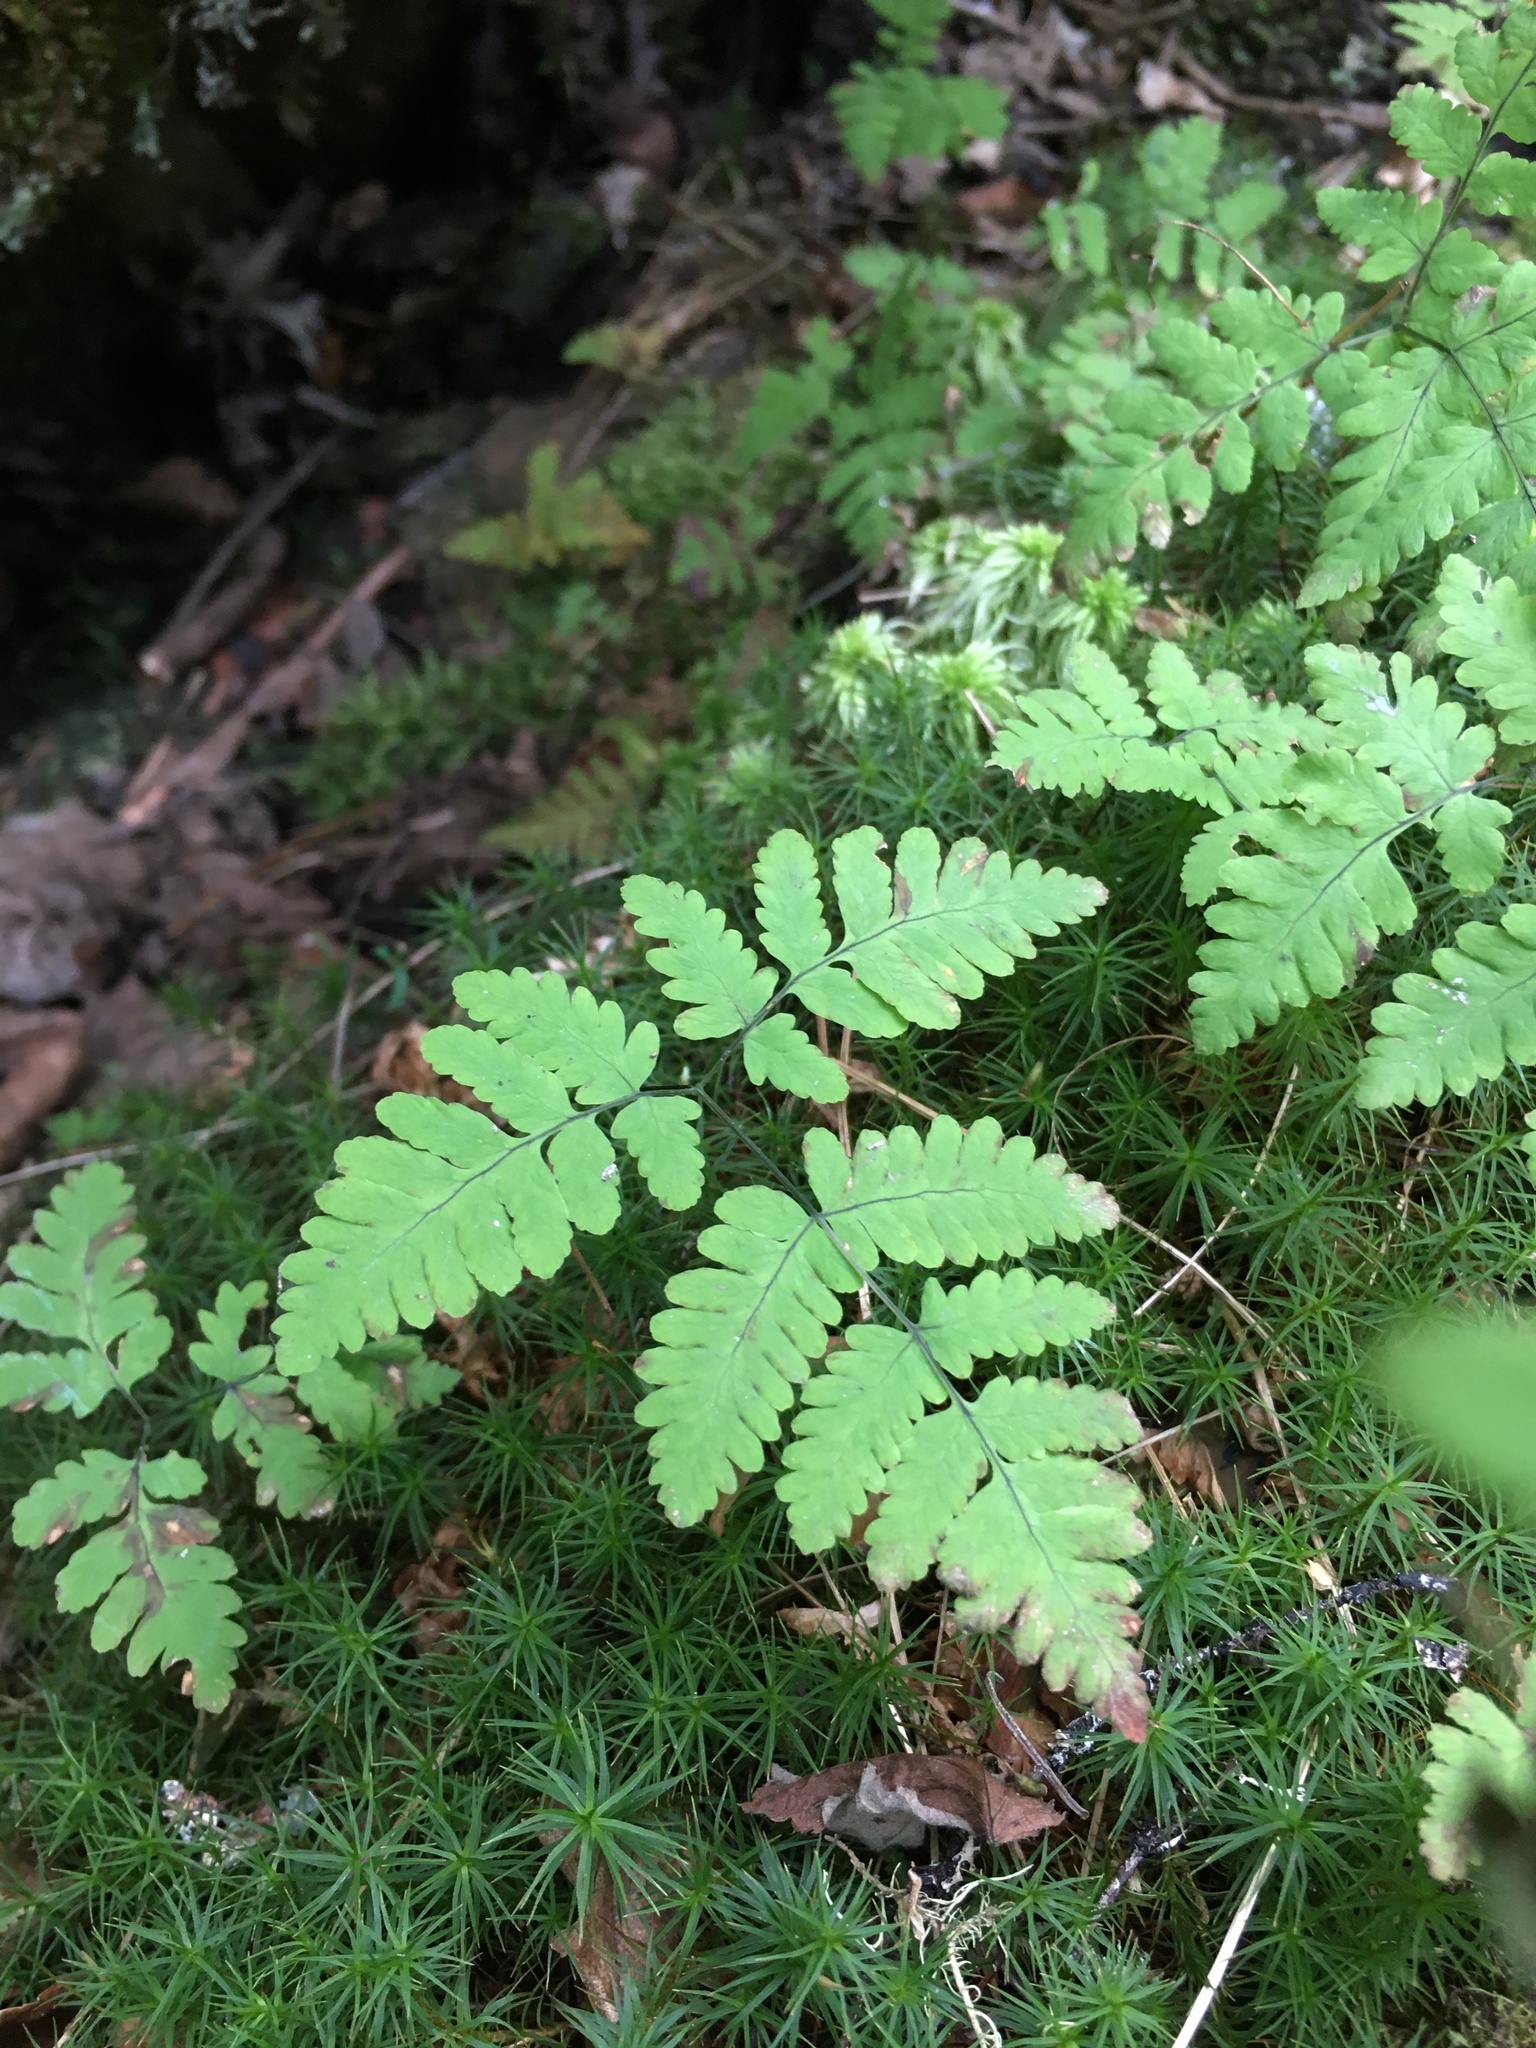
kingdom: Plantae
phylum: Tracheophyta
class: Polypodiopsida
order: Polypodiales
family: Cystopteridaceae
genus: Gymnocarpium
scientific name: Gymnocarpium dryopteris
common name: Oak fern
